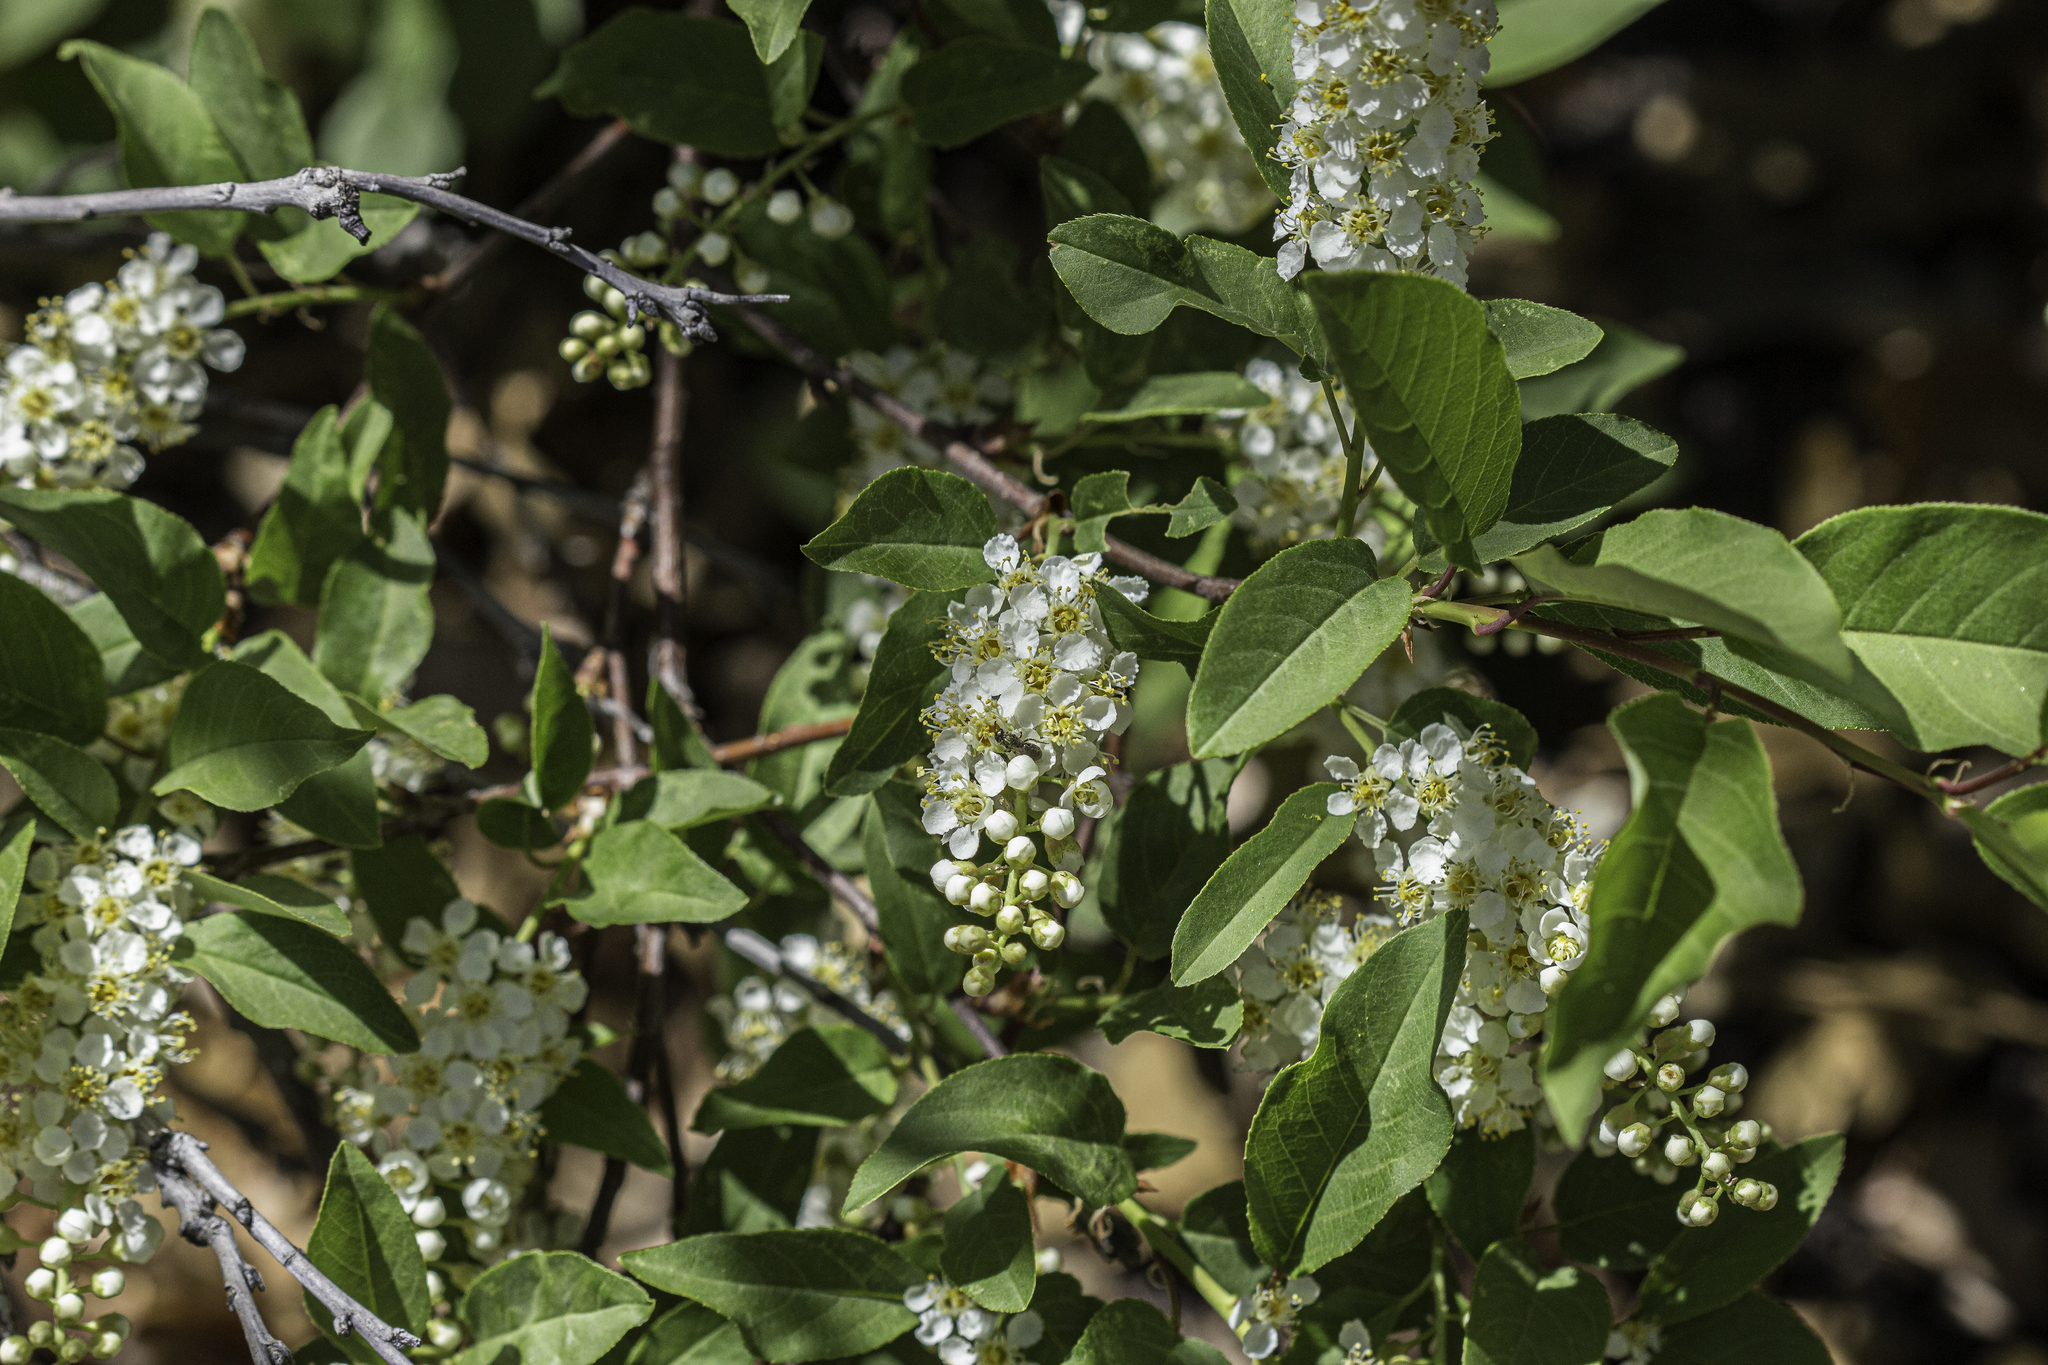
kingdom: Plantae
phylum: Tracheophyta
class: Magnoliopsida
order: Rosales
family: Rosaceae
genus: Prunus
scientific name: Prunus virginiana
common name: Chokecherry
